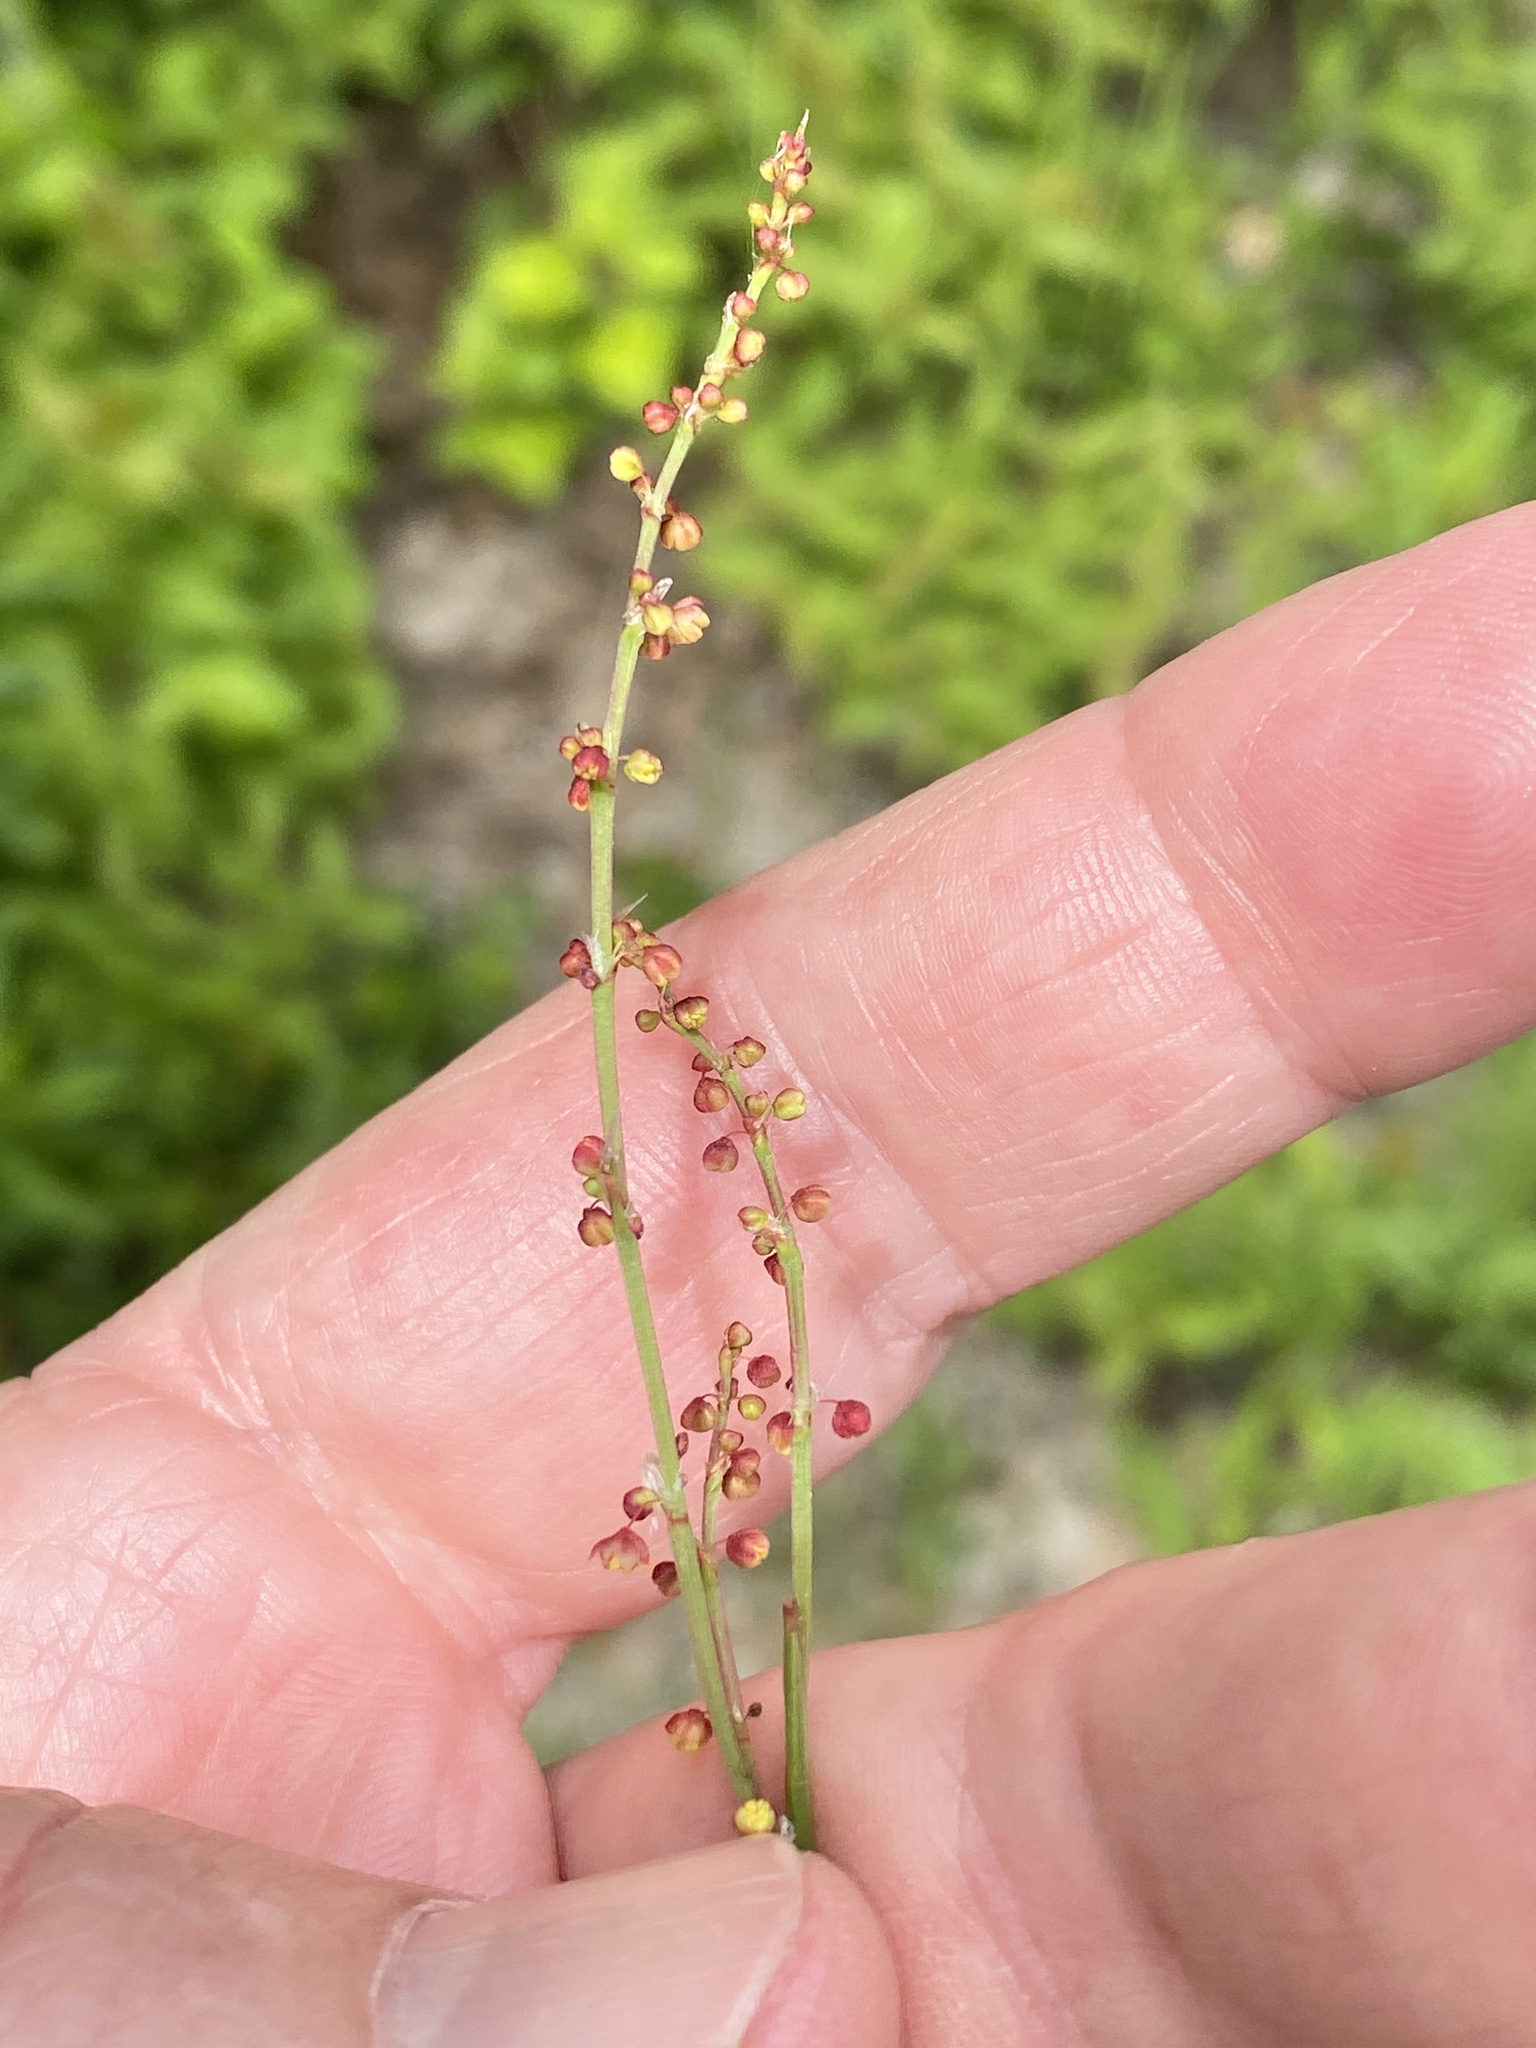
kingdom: Plantae
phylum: Tracheophyta
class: Magnoliopsida
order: Caryophyllales
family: Polygonaceae
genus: Rumex
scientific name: Rumex acetosella
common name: Common sheep sorrel
